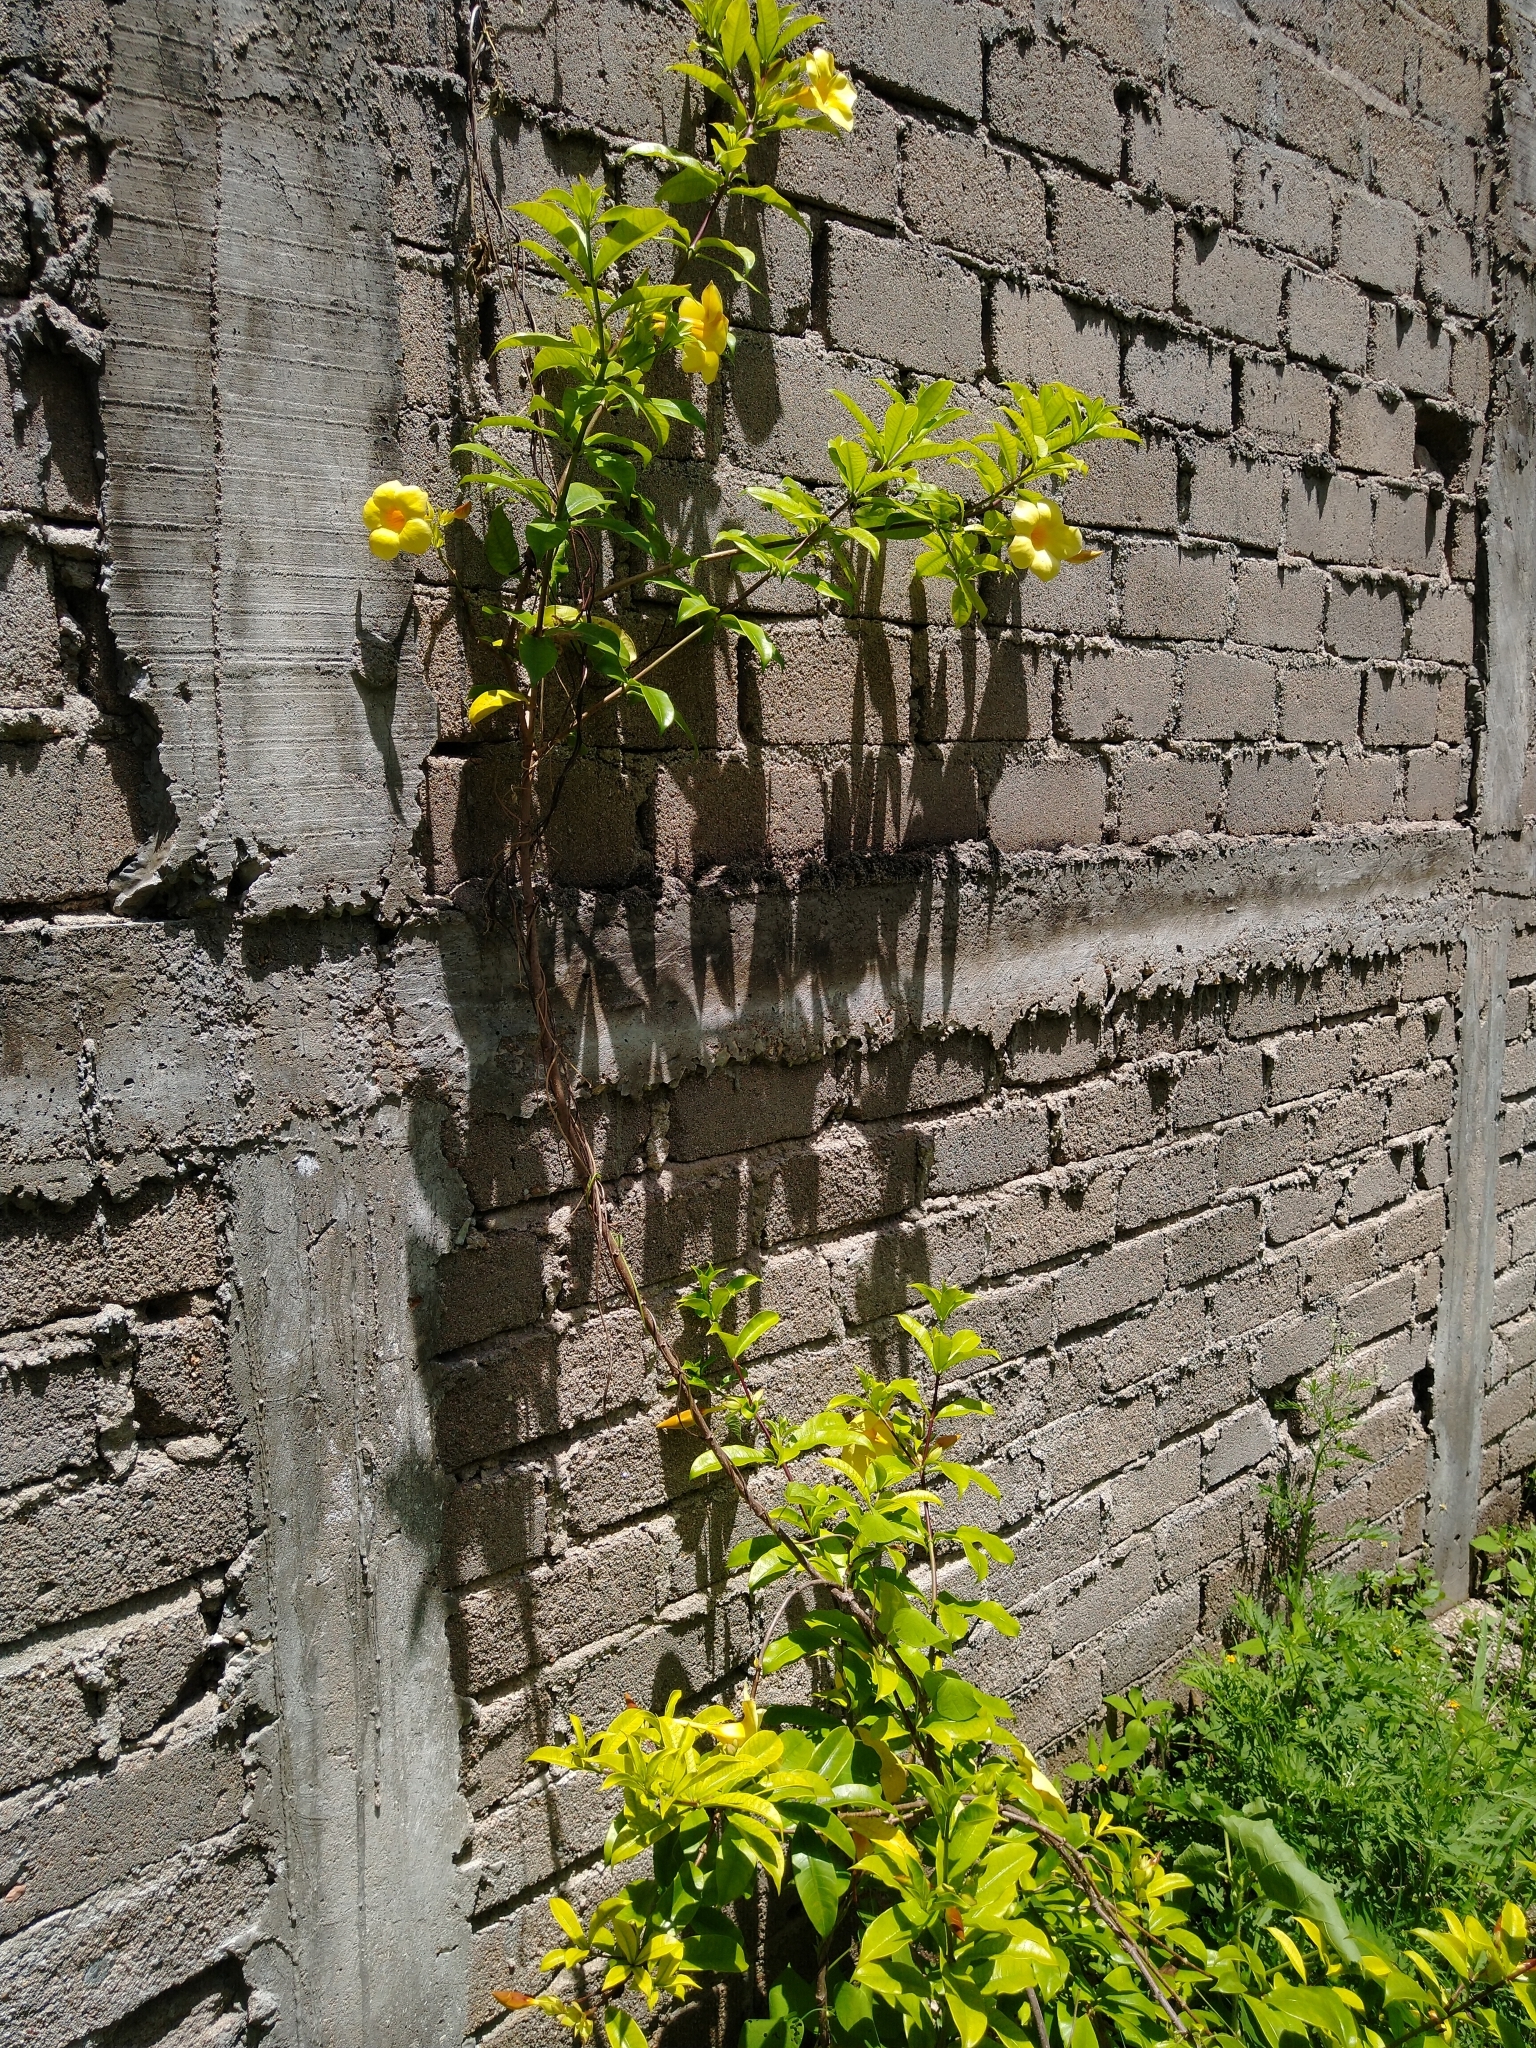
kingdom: Plantae
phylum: Tracheophyta
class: Magnoliopsida
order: Gentianales
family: Apocynaceae
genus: Allamanda
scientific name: Allamanda cathartica
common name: Golden trumpet
